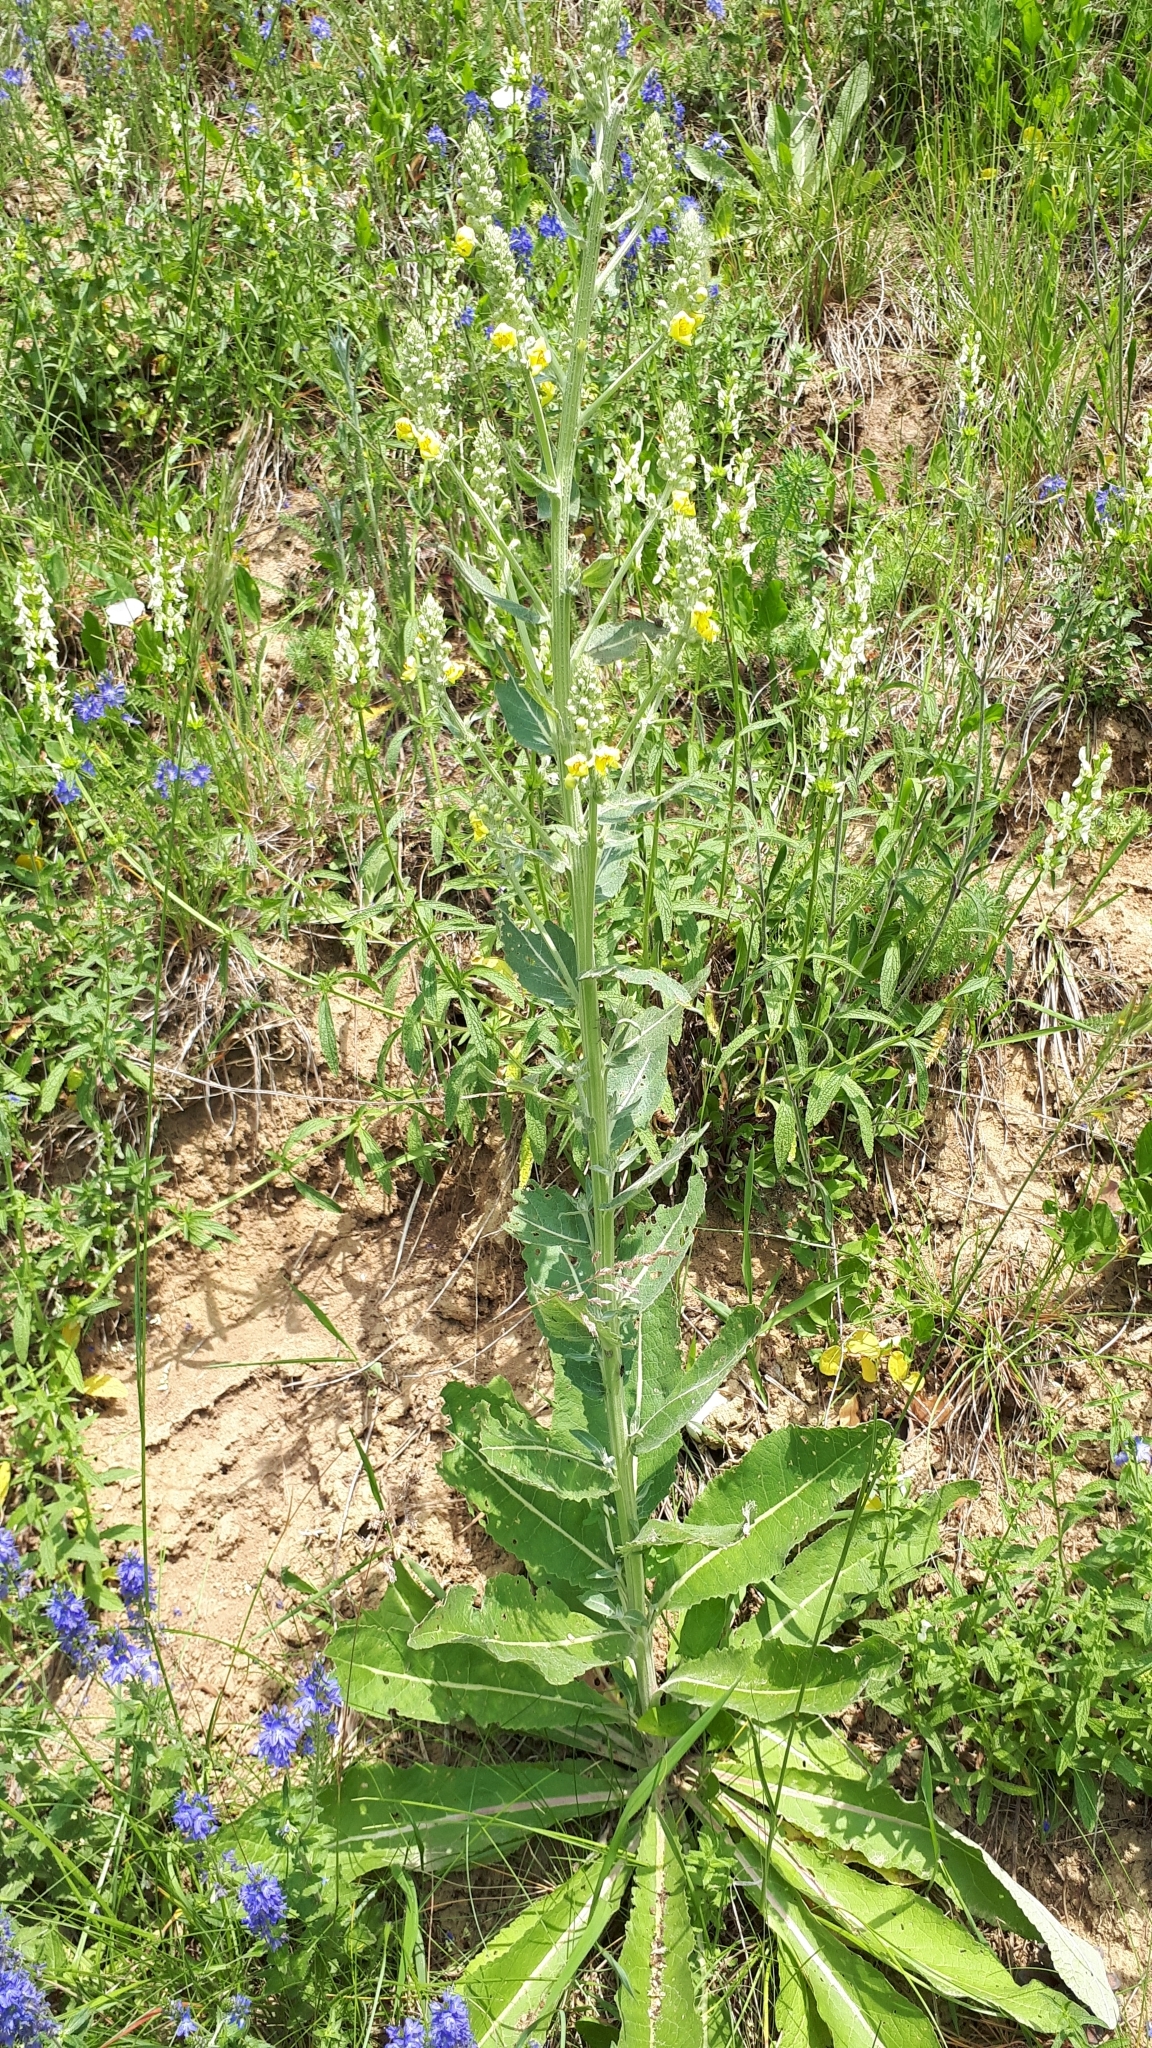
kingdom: Plantae
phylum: Tracheophyta
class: Magnoliopsida
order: Lamiales
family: Scrophulariaceae
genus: Verbascum
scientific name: Verbascum lychnitis
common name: White mullein
